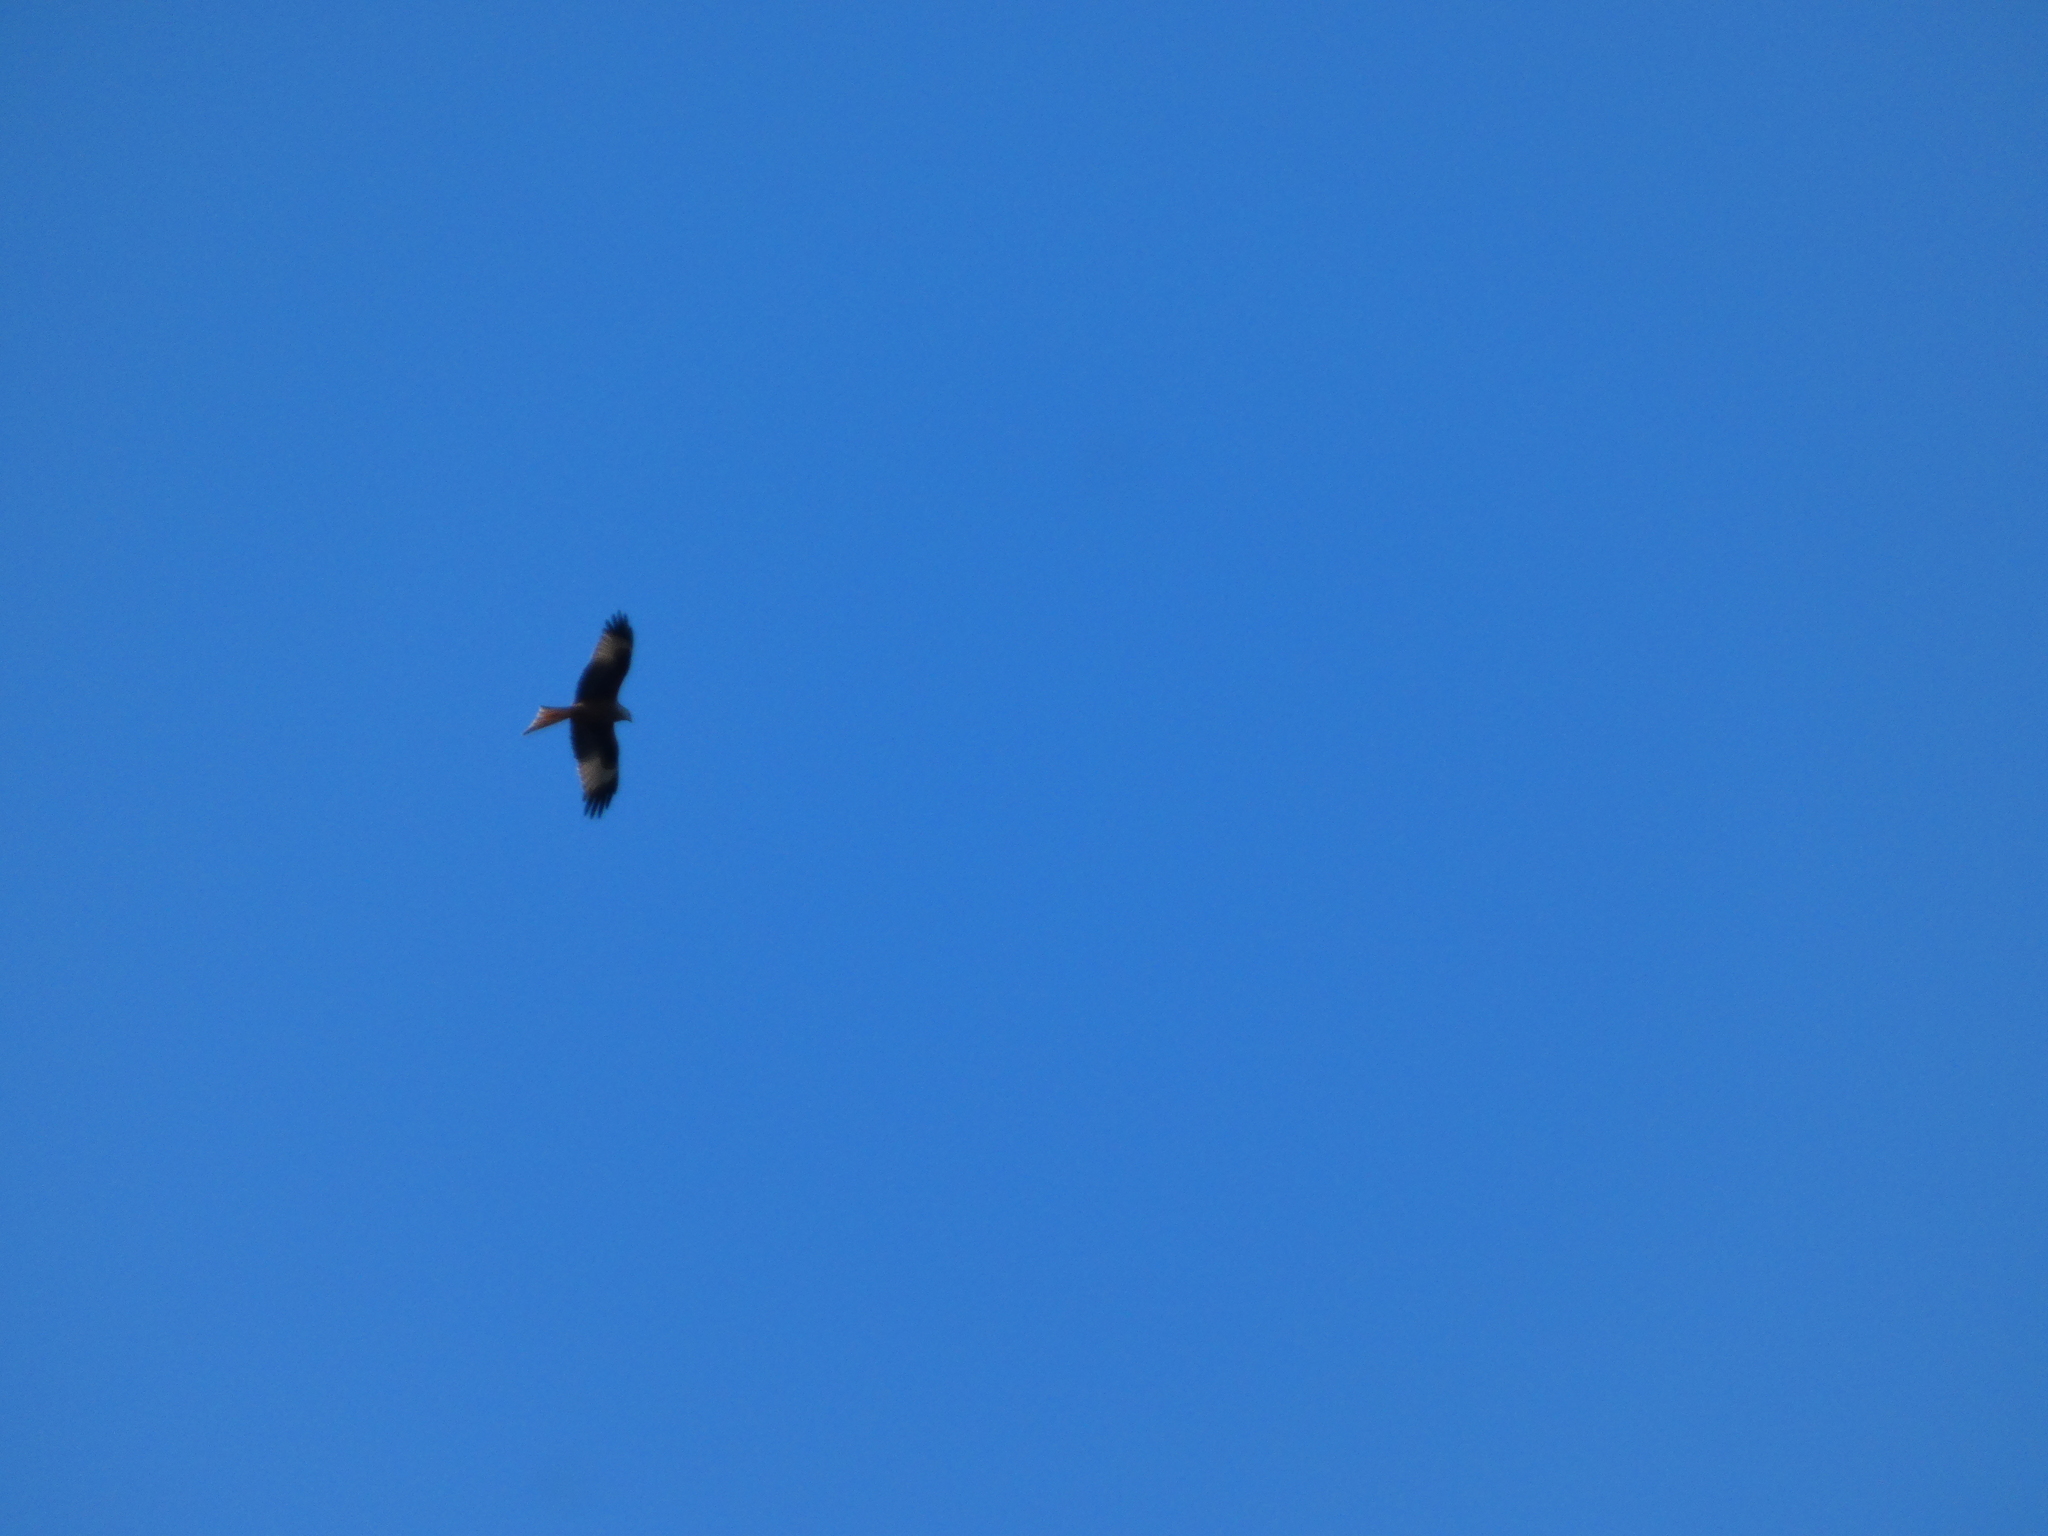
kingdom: Animalia
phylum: Chordata
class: Aves
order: Accipitriformes
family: Accipitridae
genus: Milvus
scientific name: Milvus milvus
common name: Red kite
